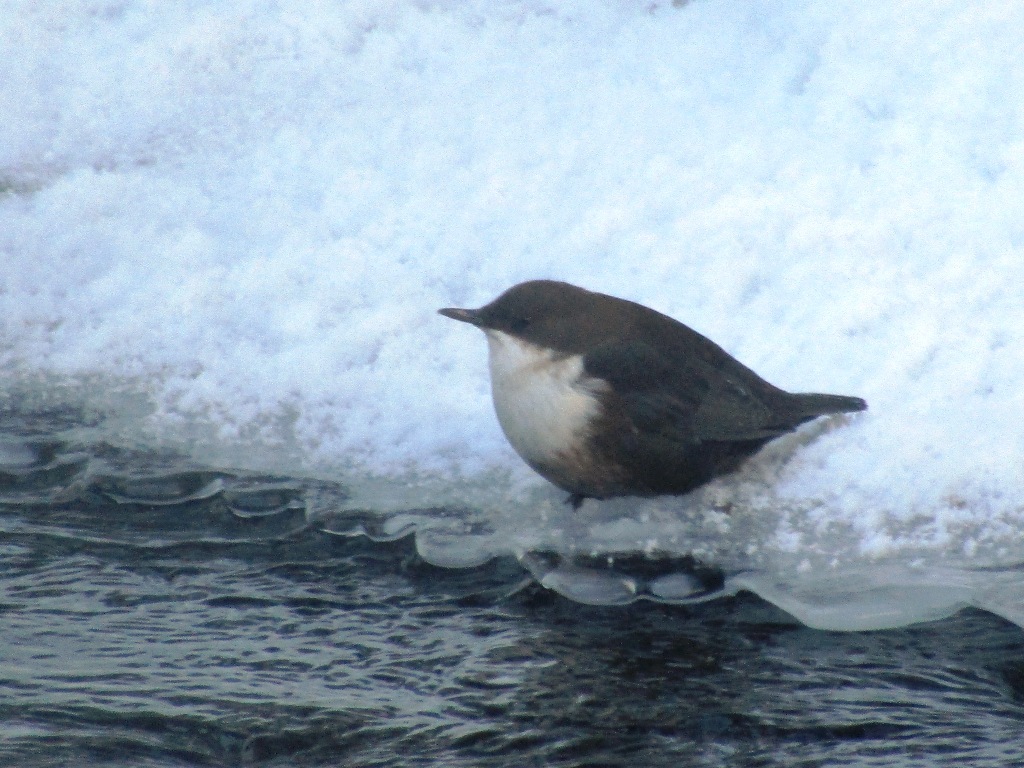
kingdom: Animalia
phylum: Chordata
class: Aves
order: Passeriformes
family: Cinclidae
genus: Cinclus
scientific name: Cinclus cinclus
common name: White-throated dipper
